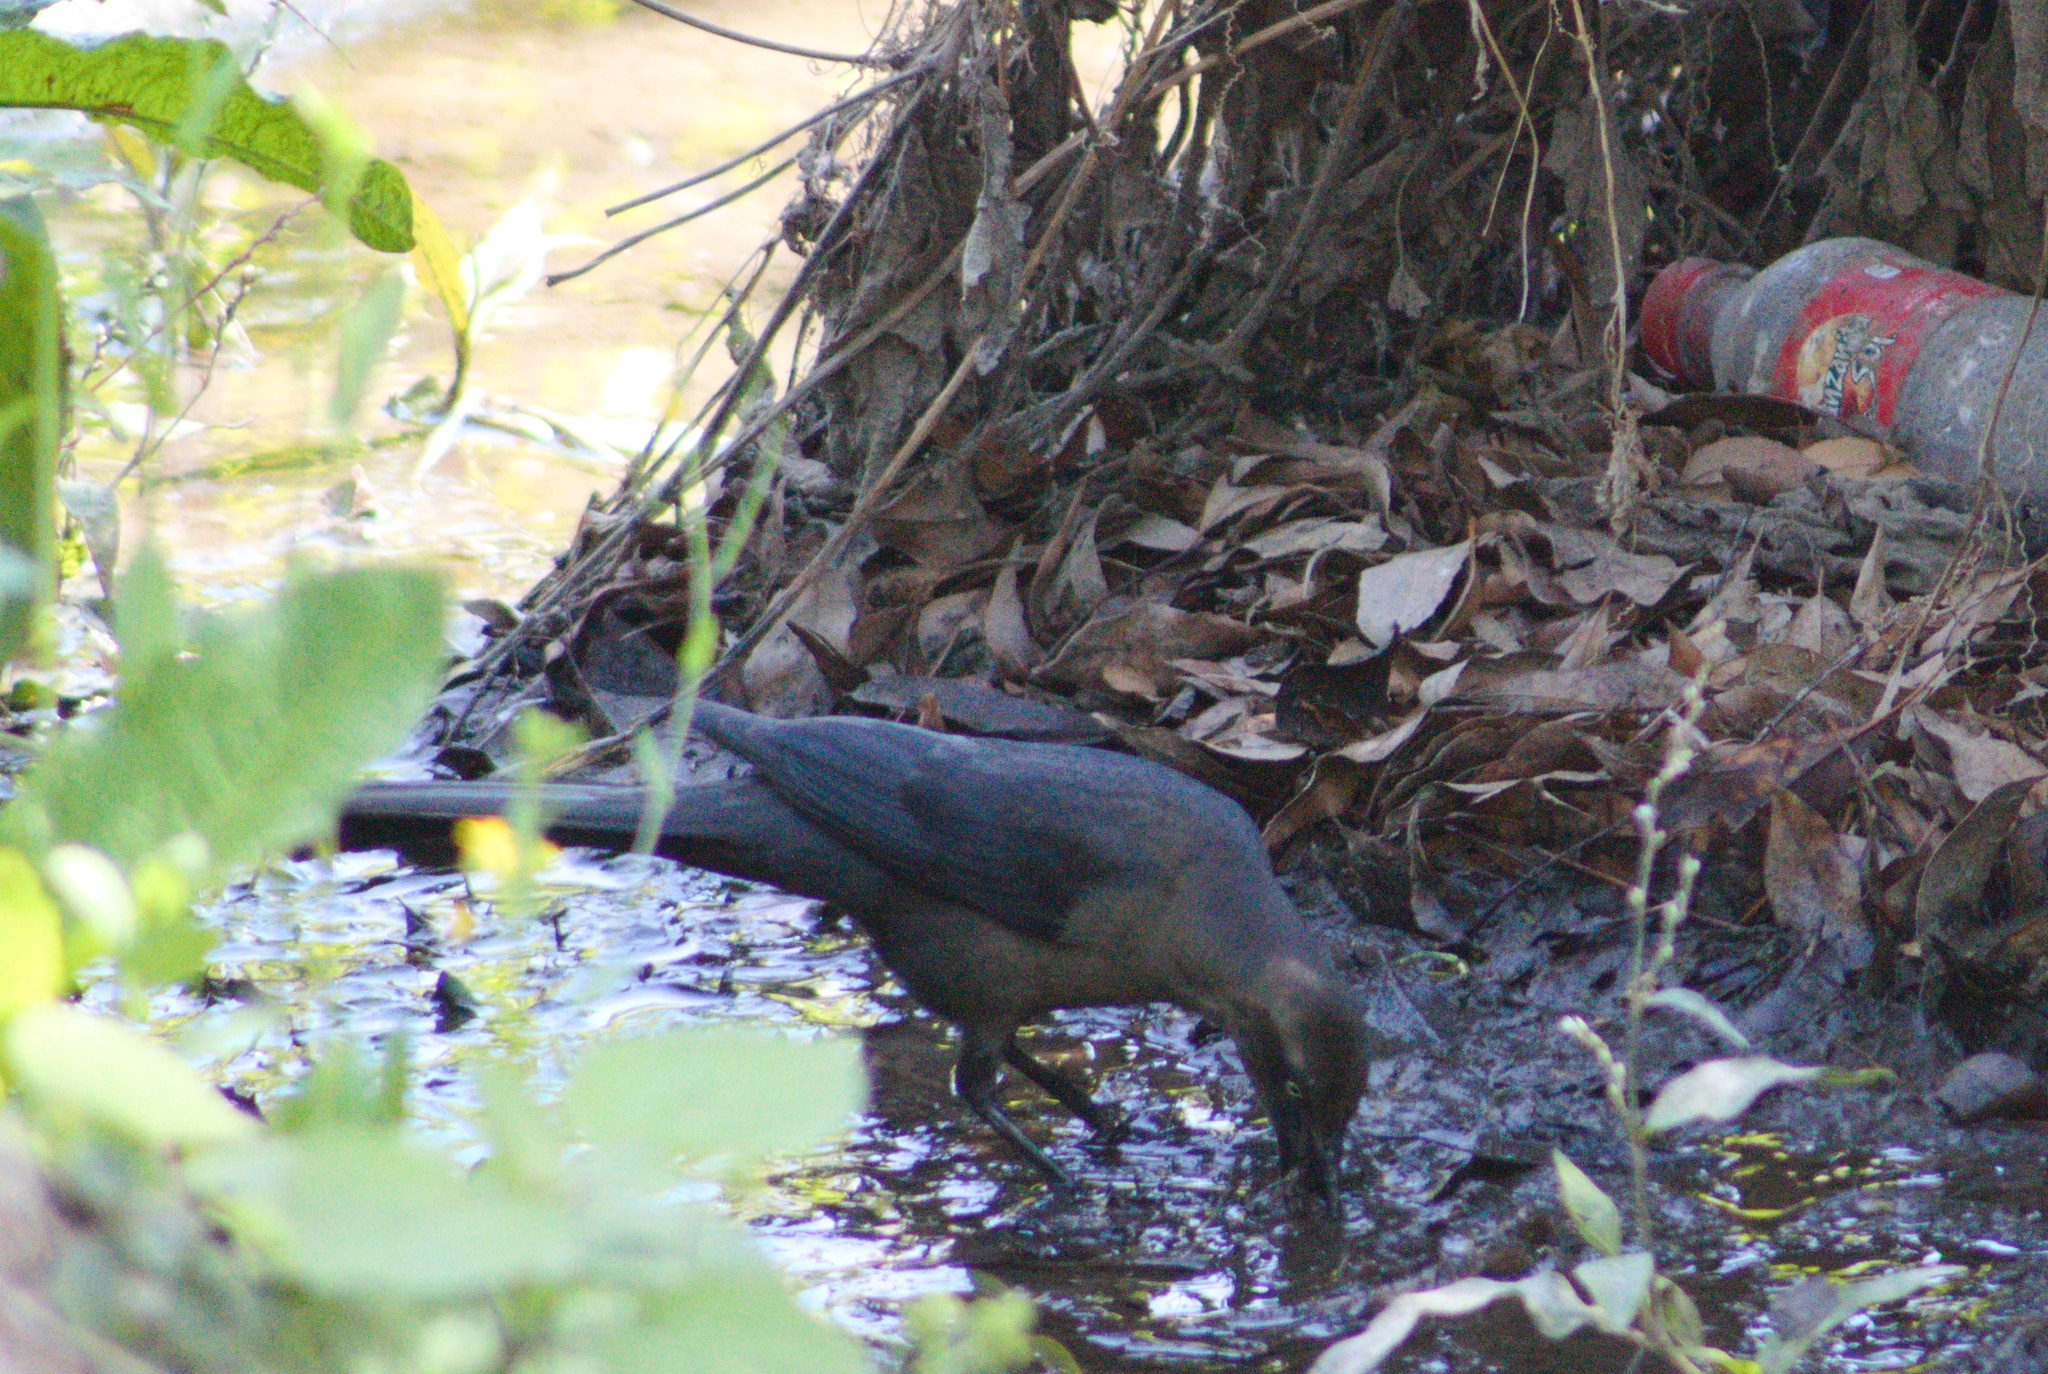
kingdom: Animalia
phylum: Chordata
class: Aves
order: Passeriformes
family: Icteridae
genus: Quiscalus
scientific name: Quiscalus mexicanus
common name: Great-tailed grackle
